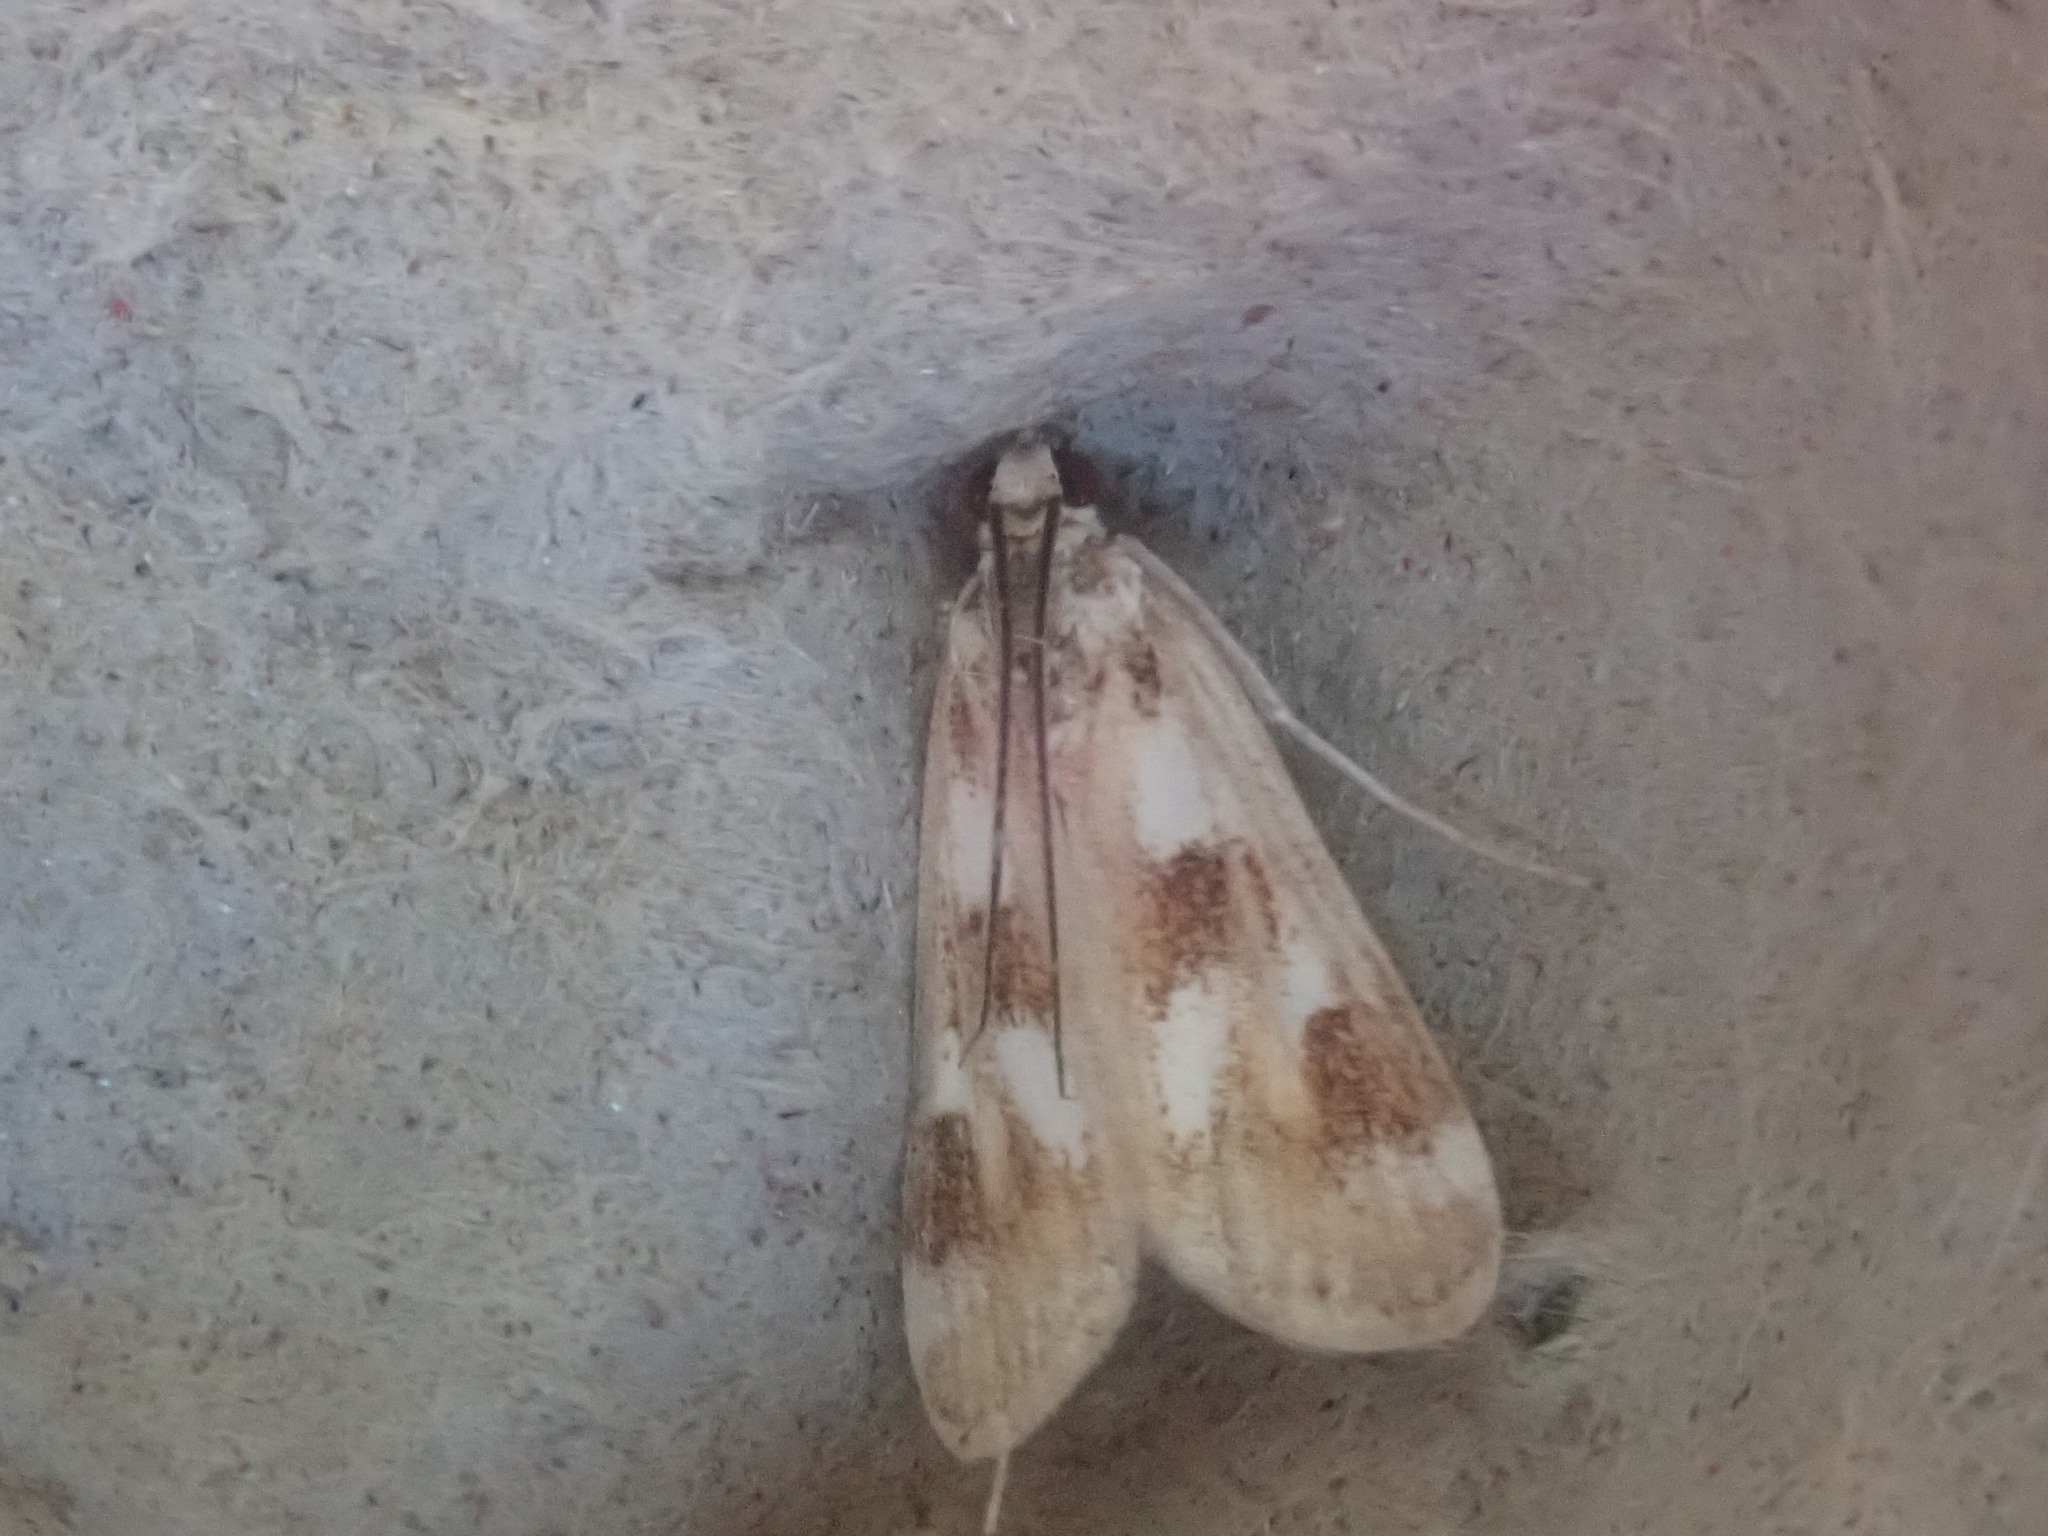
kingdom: Animalia
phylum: Arthropoda
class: Insecta
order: Lepidoptera
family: Crambidae
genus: Parapoynx
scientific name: Parapoynx maculalis
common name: Polymorphic pondweed moth
